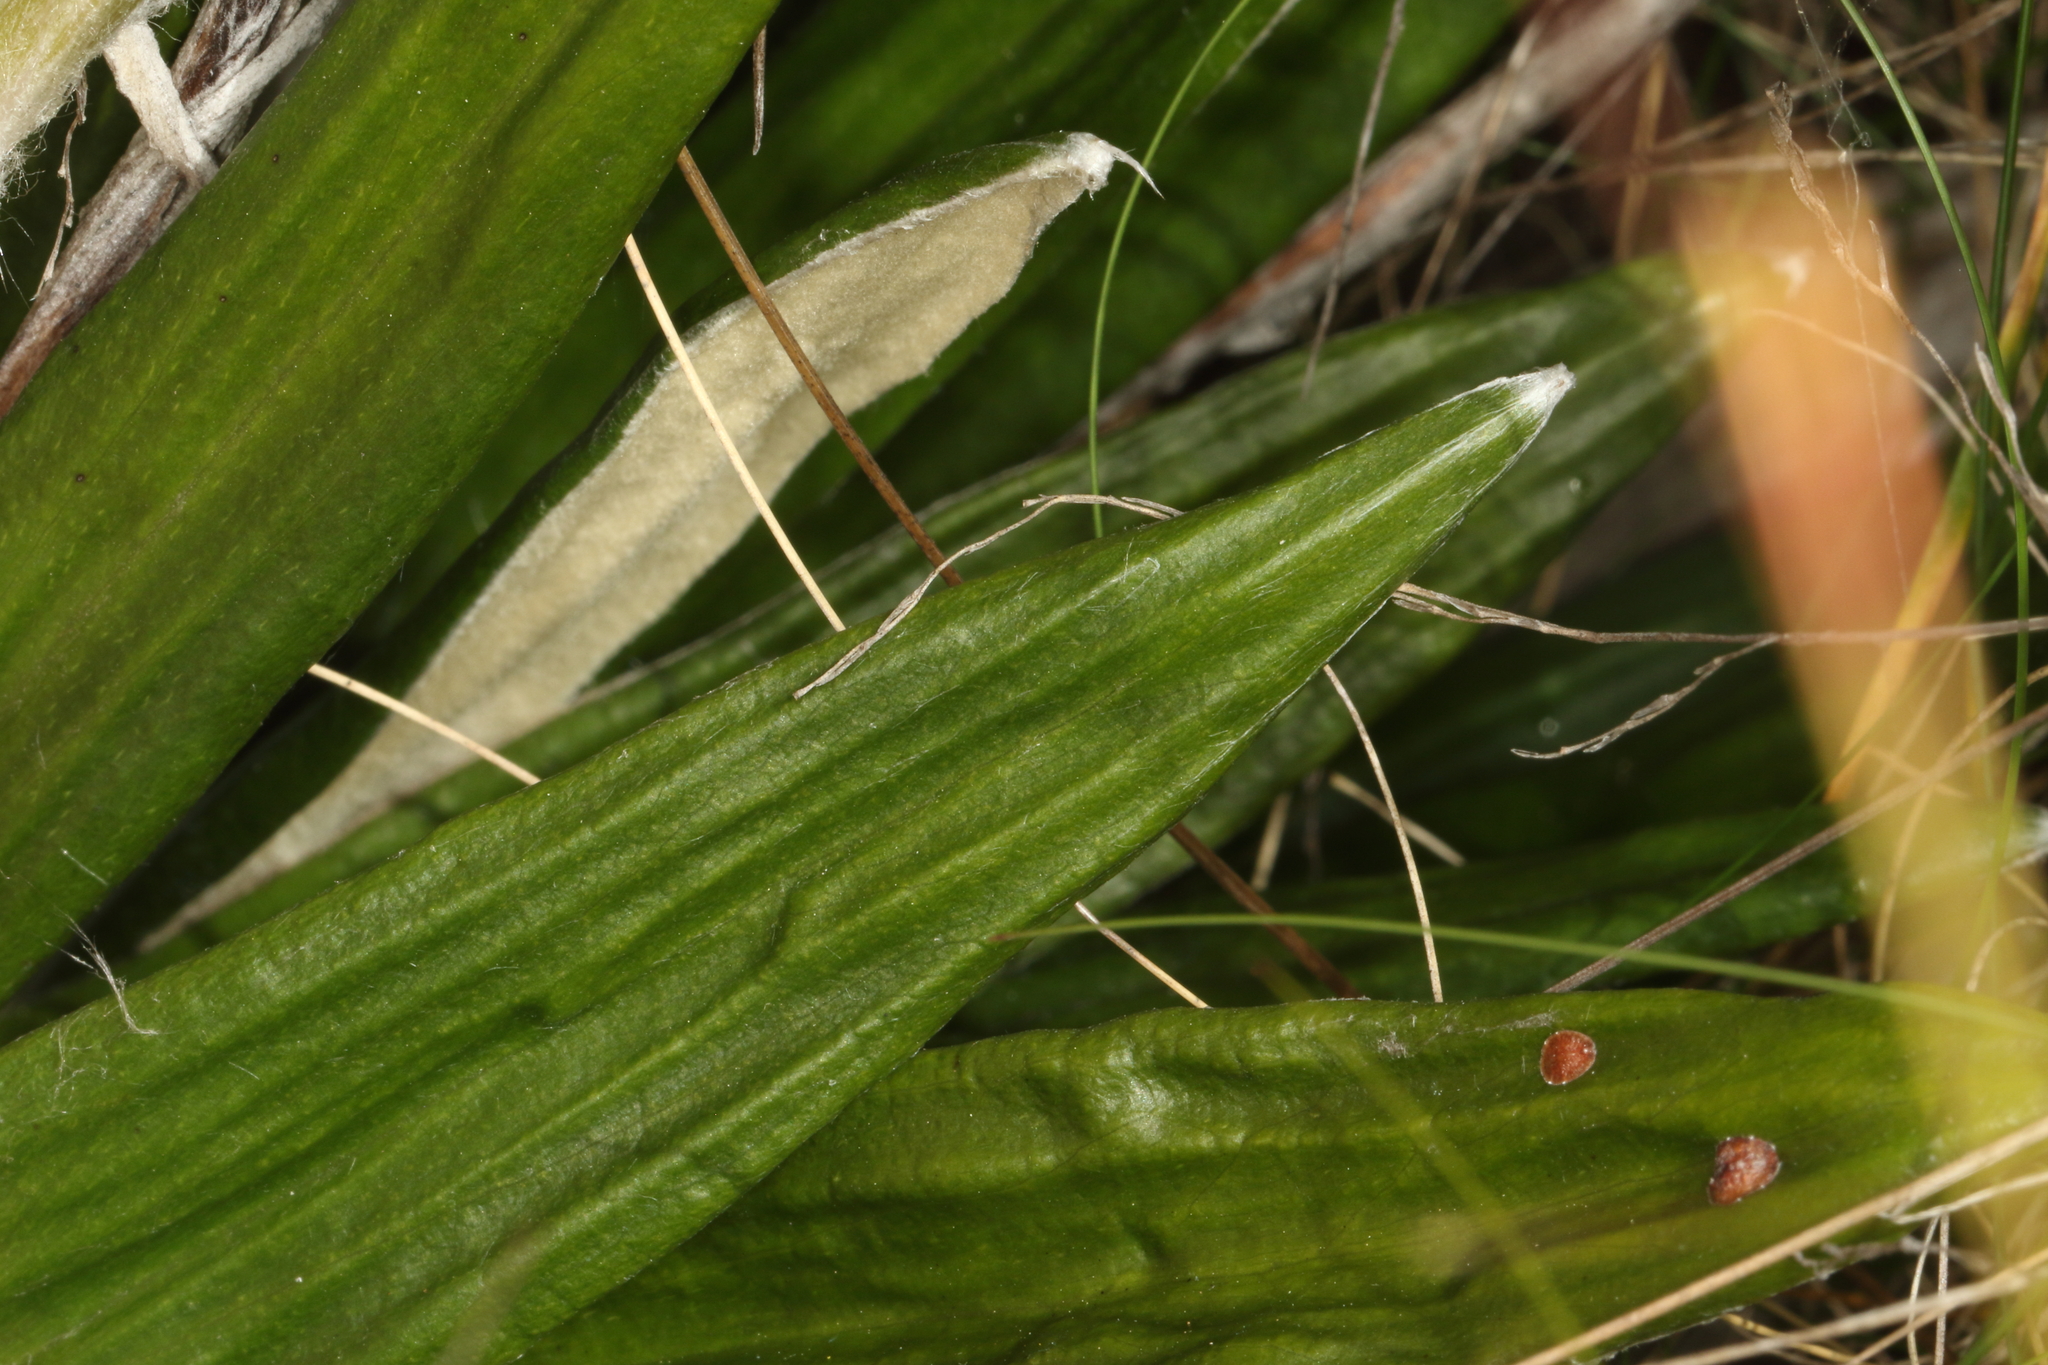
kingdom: Plantae
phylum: Tracheophyta
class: Magnoliopsida
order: Asterales
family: Asteraceae
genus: Celmisia
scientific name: Celmisia spectabilis
